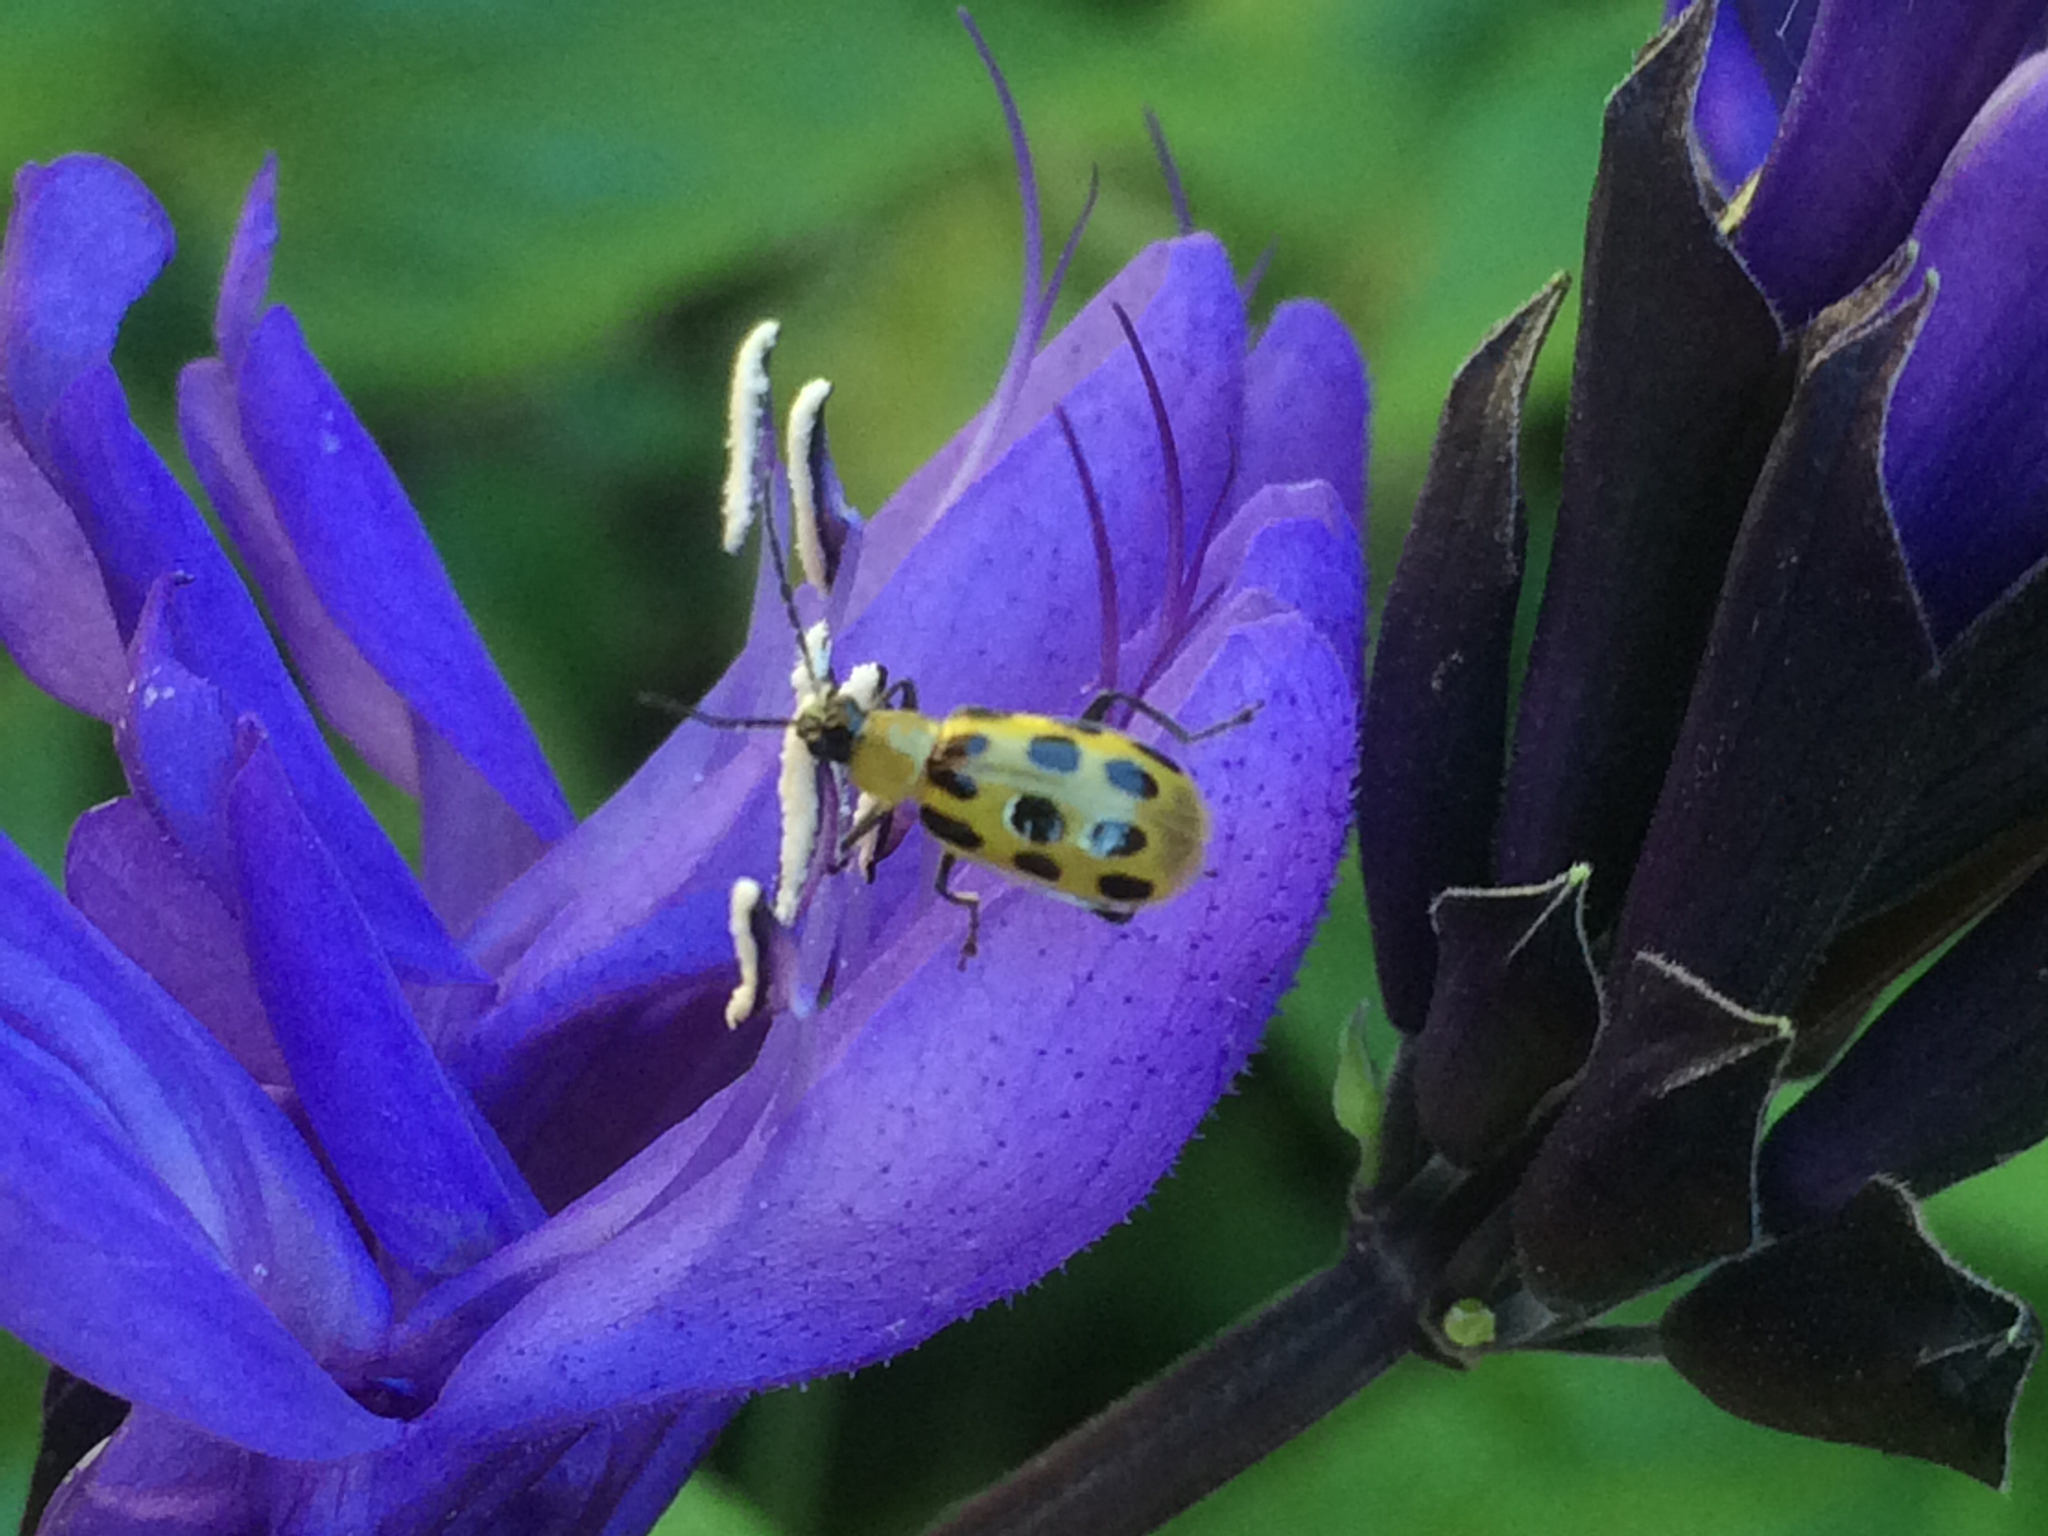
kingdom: Animalia
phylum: Arthropoda
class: Insecta
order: Coleoptera
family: Chrysomelidae
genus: Diabrotica
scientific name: Diabrotica undecimpunctata
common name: Spotted cucumber beetle
